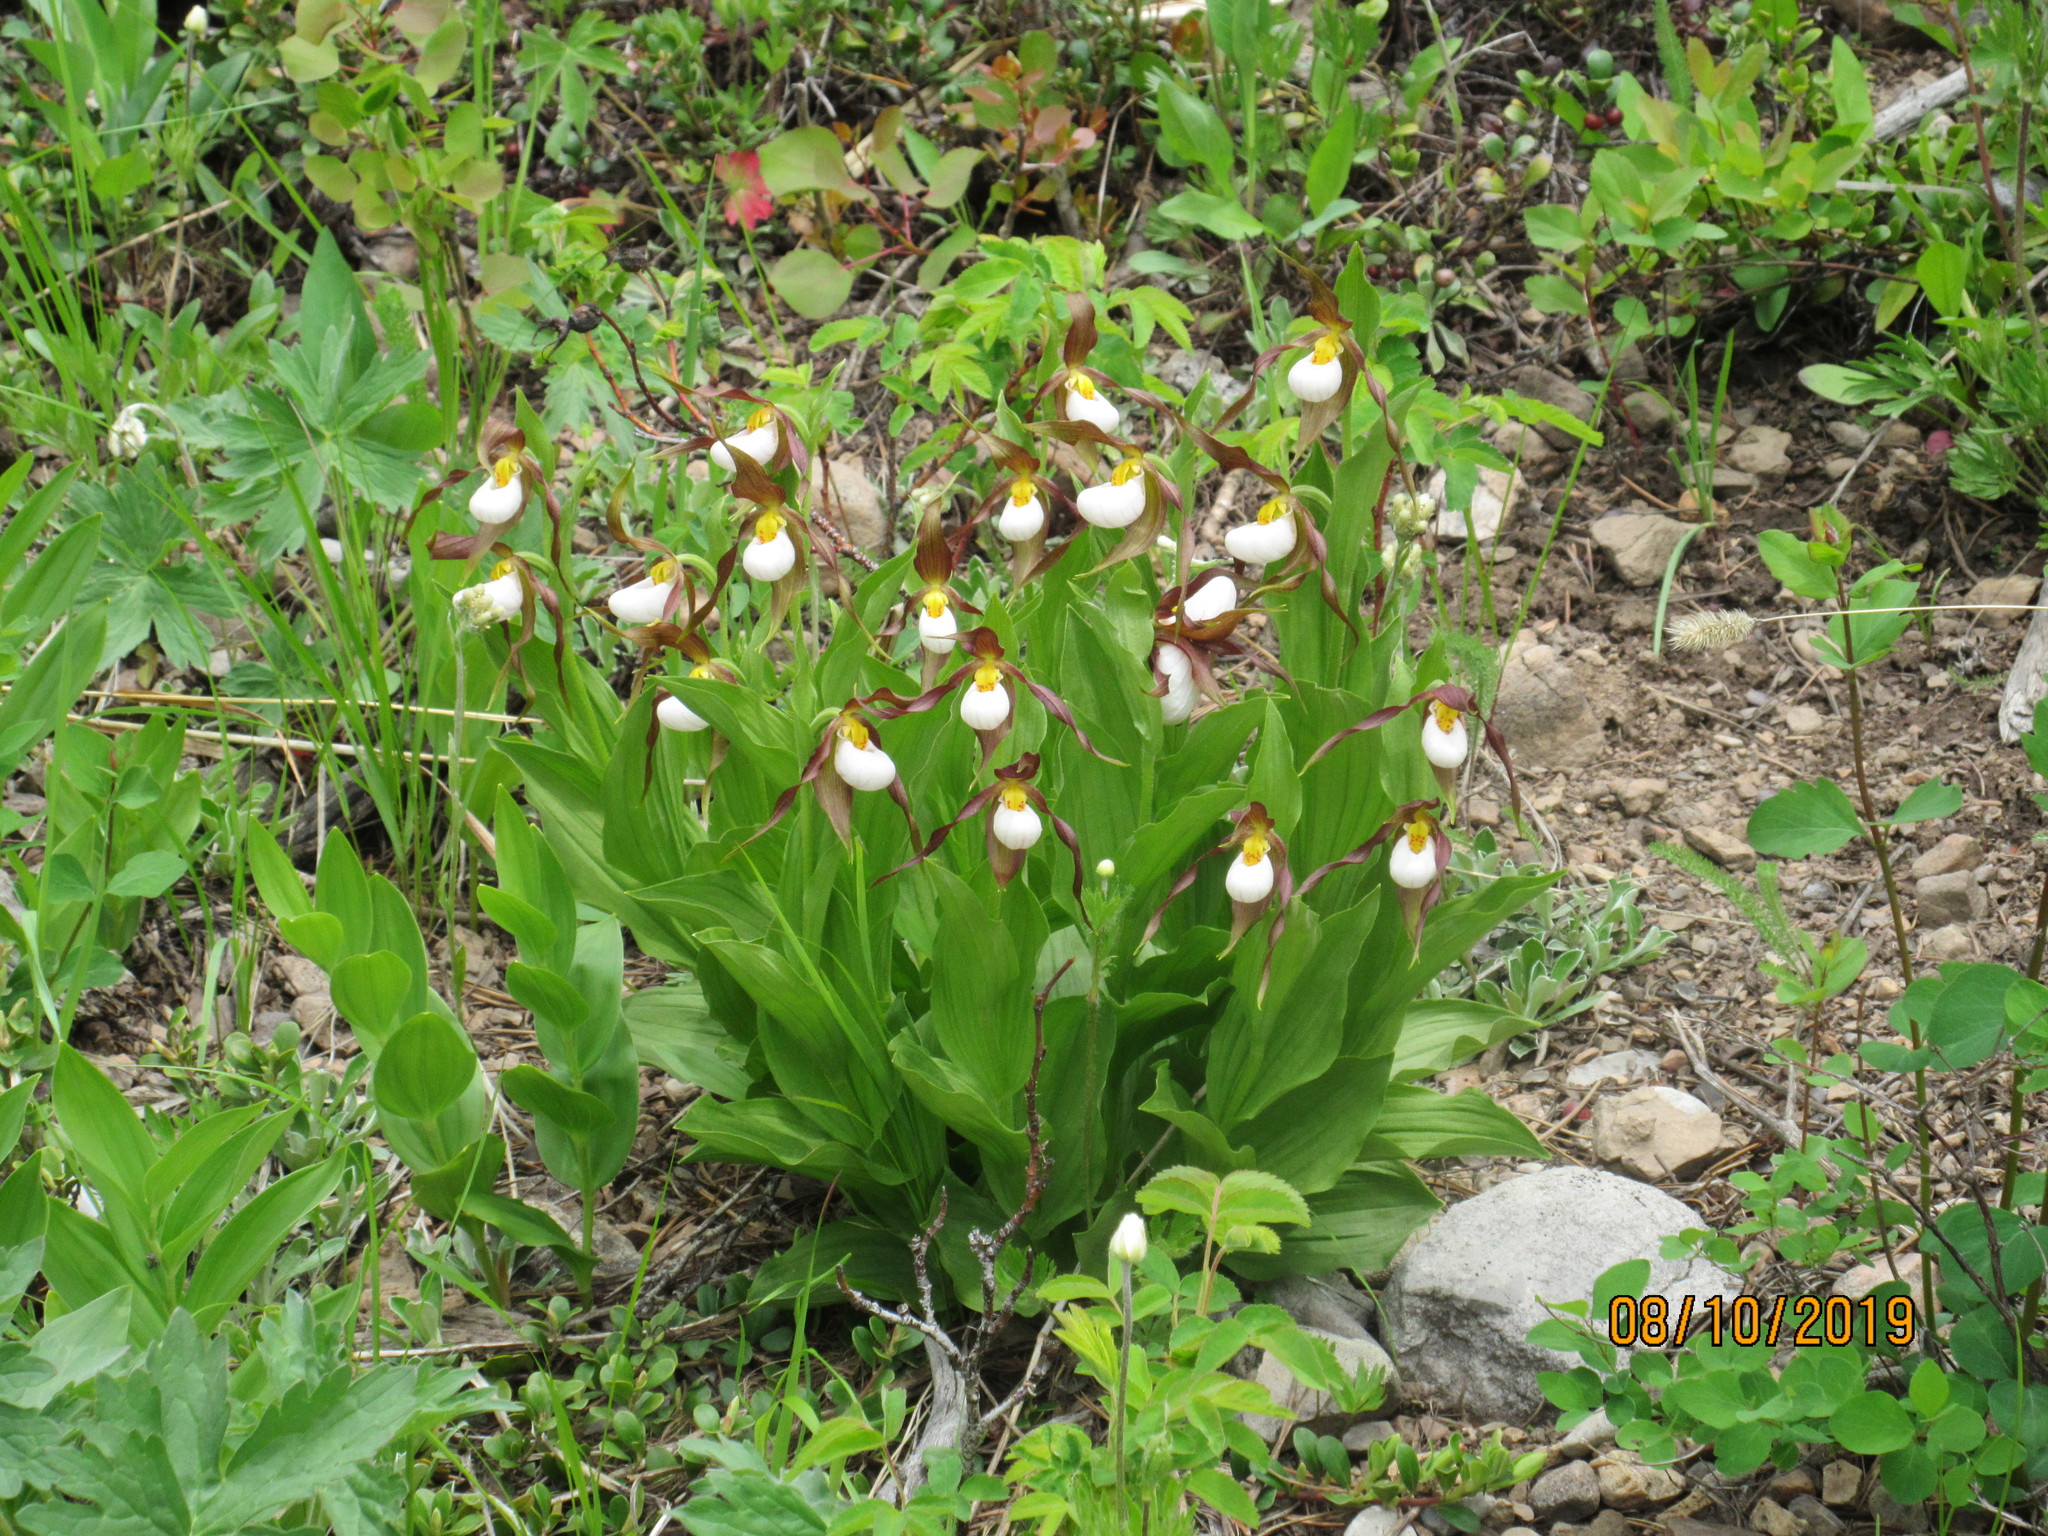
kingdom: Plantae
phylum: Tracheophyta
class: Liliopsida
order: Asparagales
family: Orchidaceae
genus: Cypripedium
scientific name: Cypripedium montanum
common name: Mountain lady's-slipper
